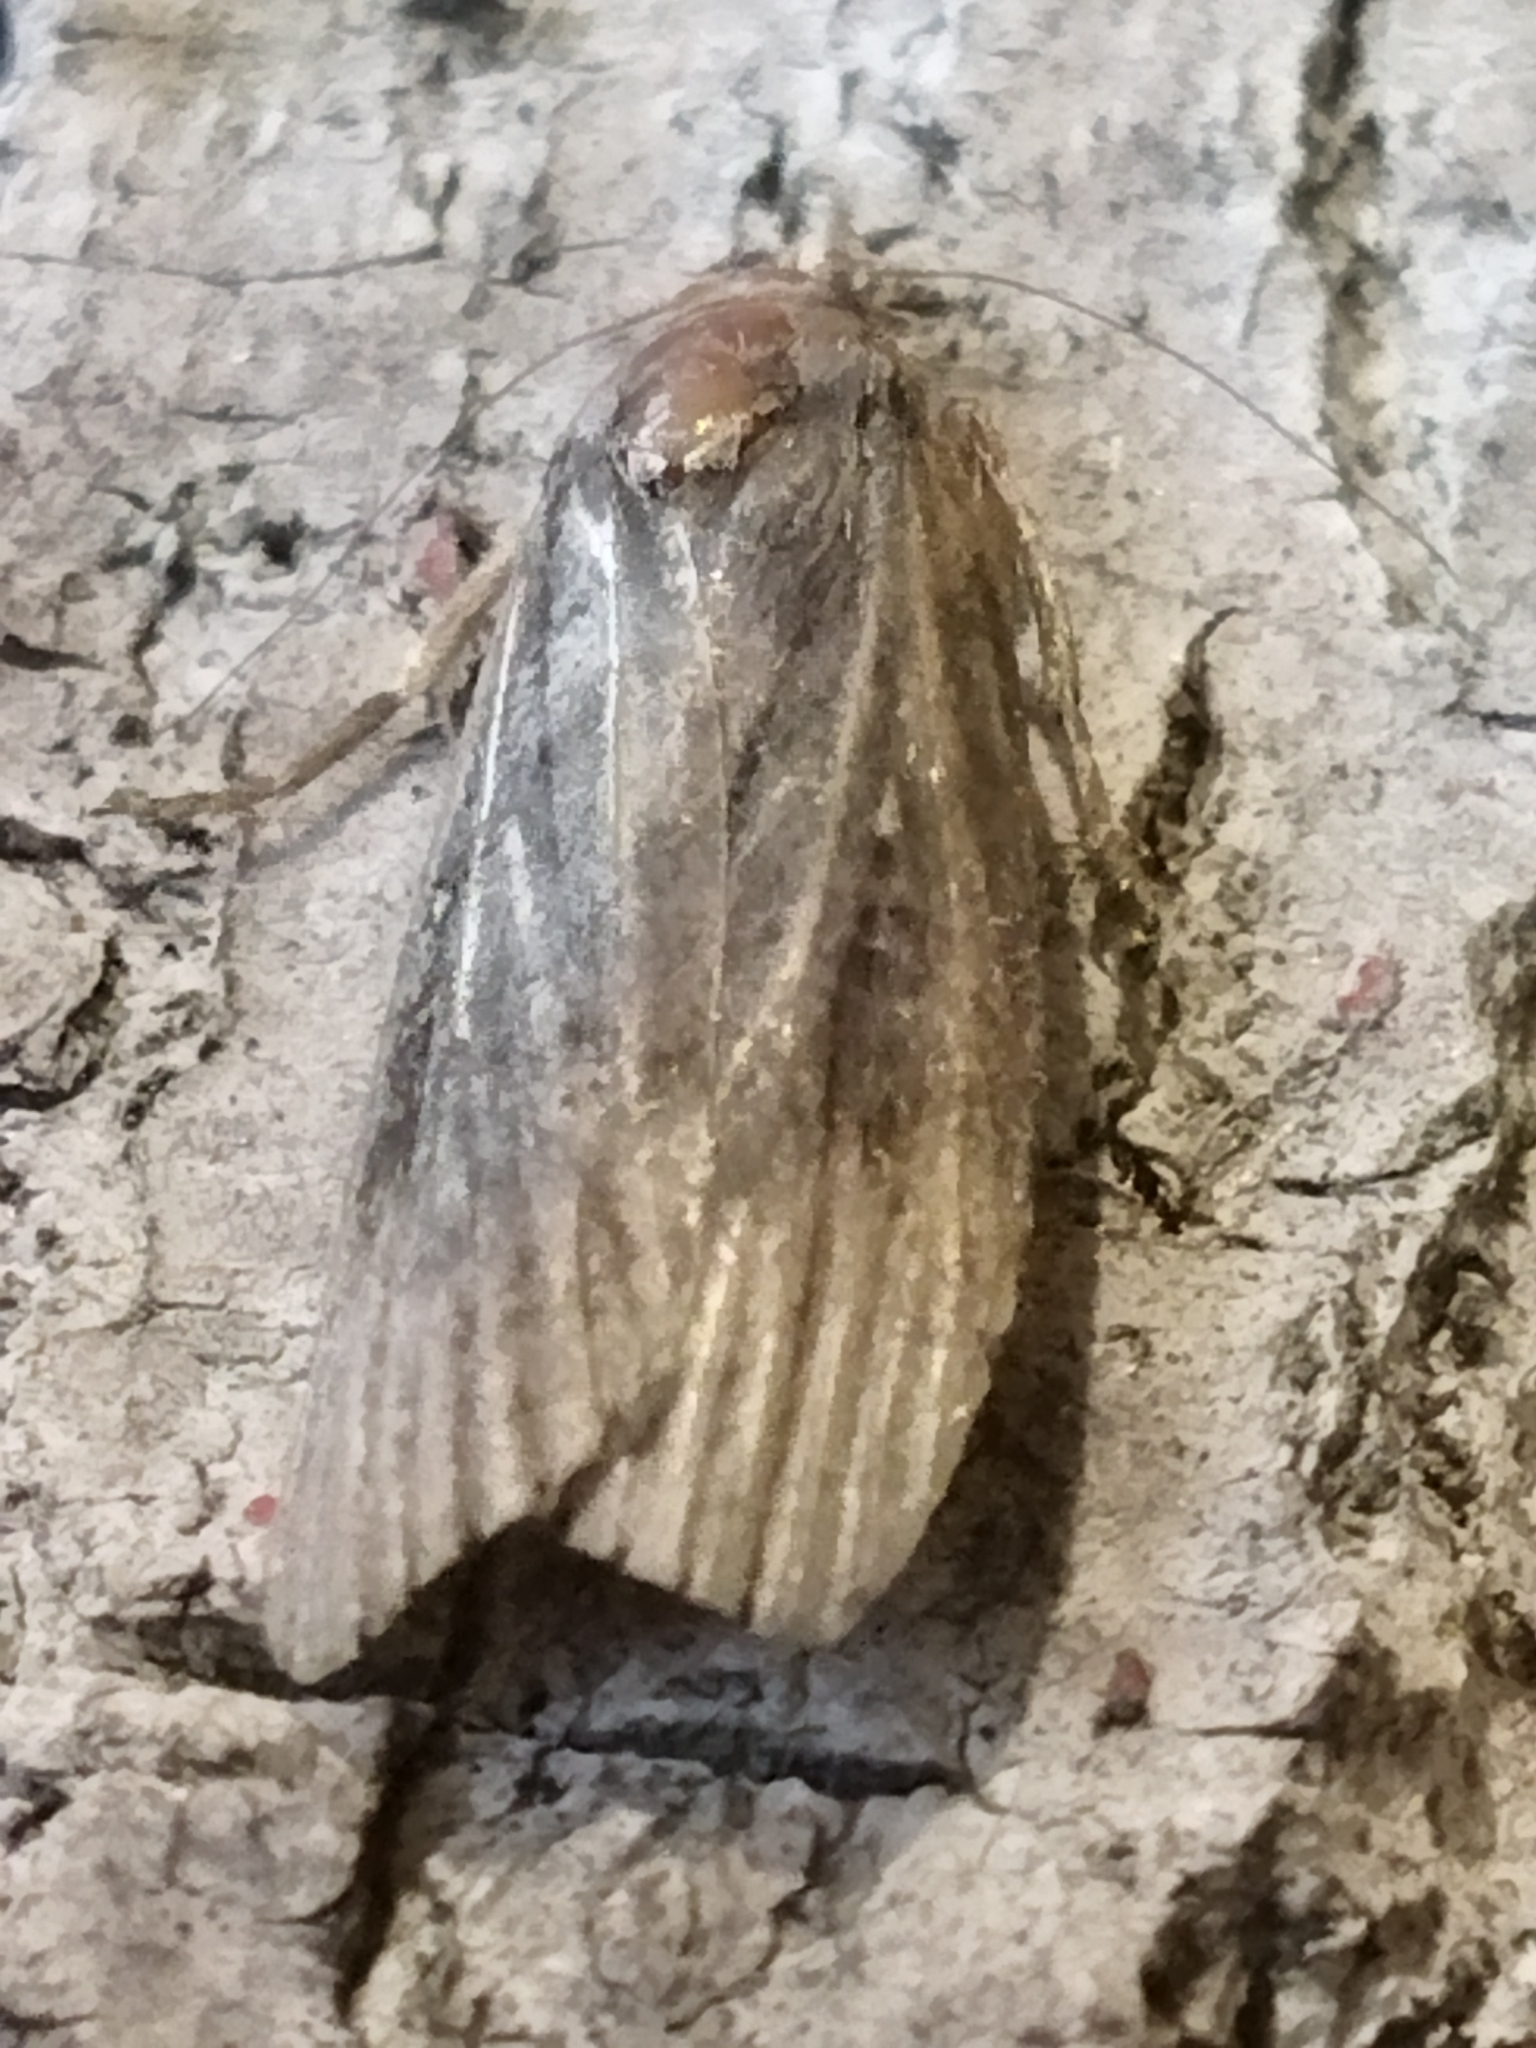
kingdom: Animalia
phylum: Arthropoda
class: Insecta
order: Lepidoptera
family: Pyralidae
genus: Lamoria
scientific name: Lamoria anella
